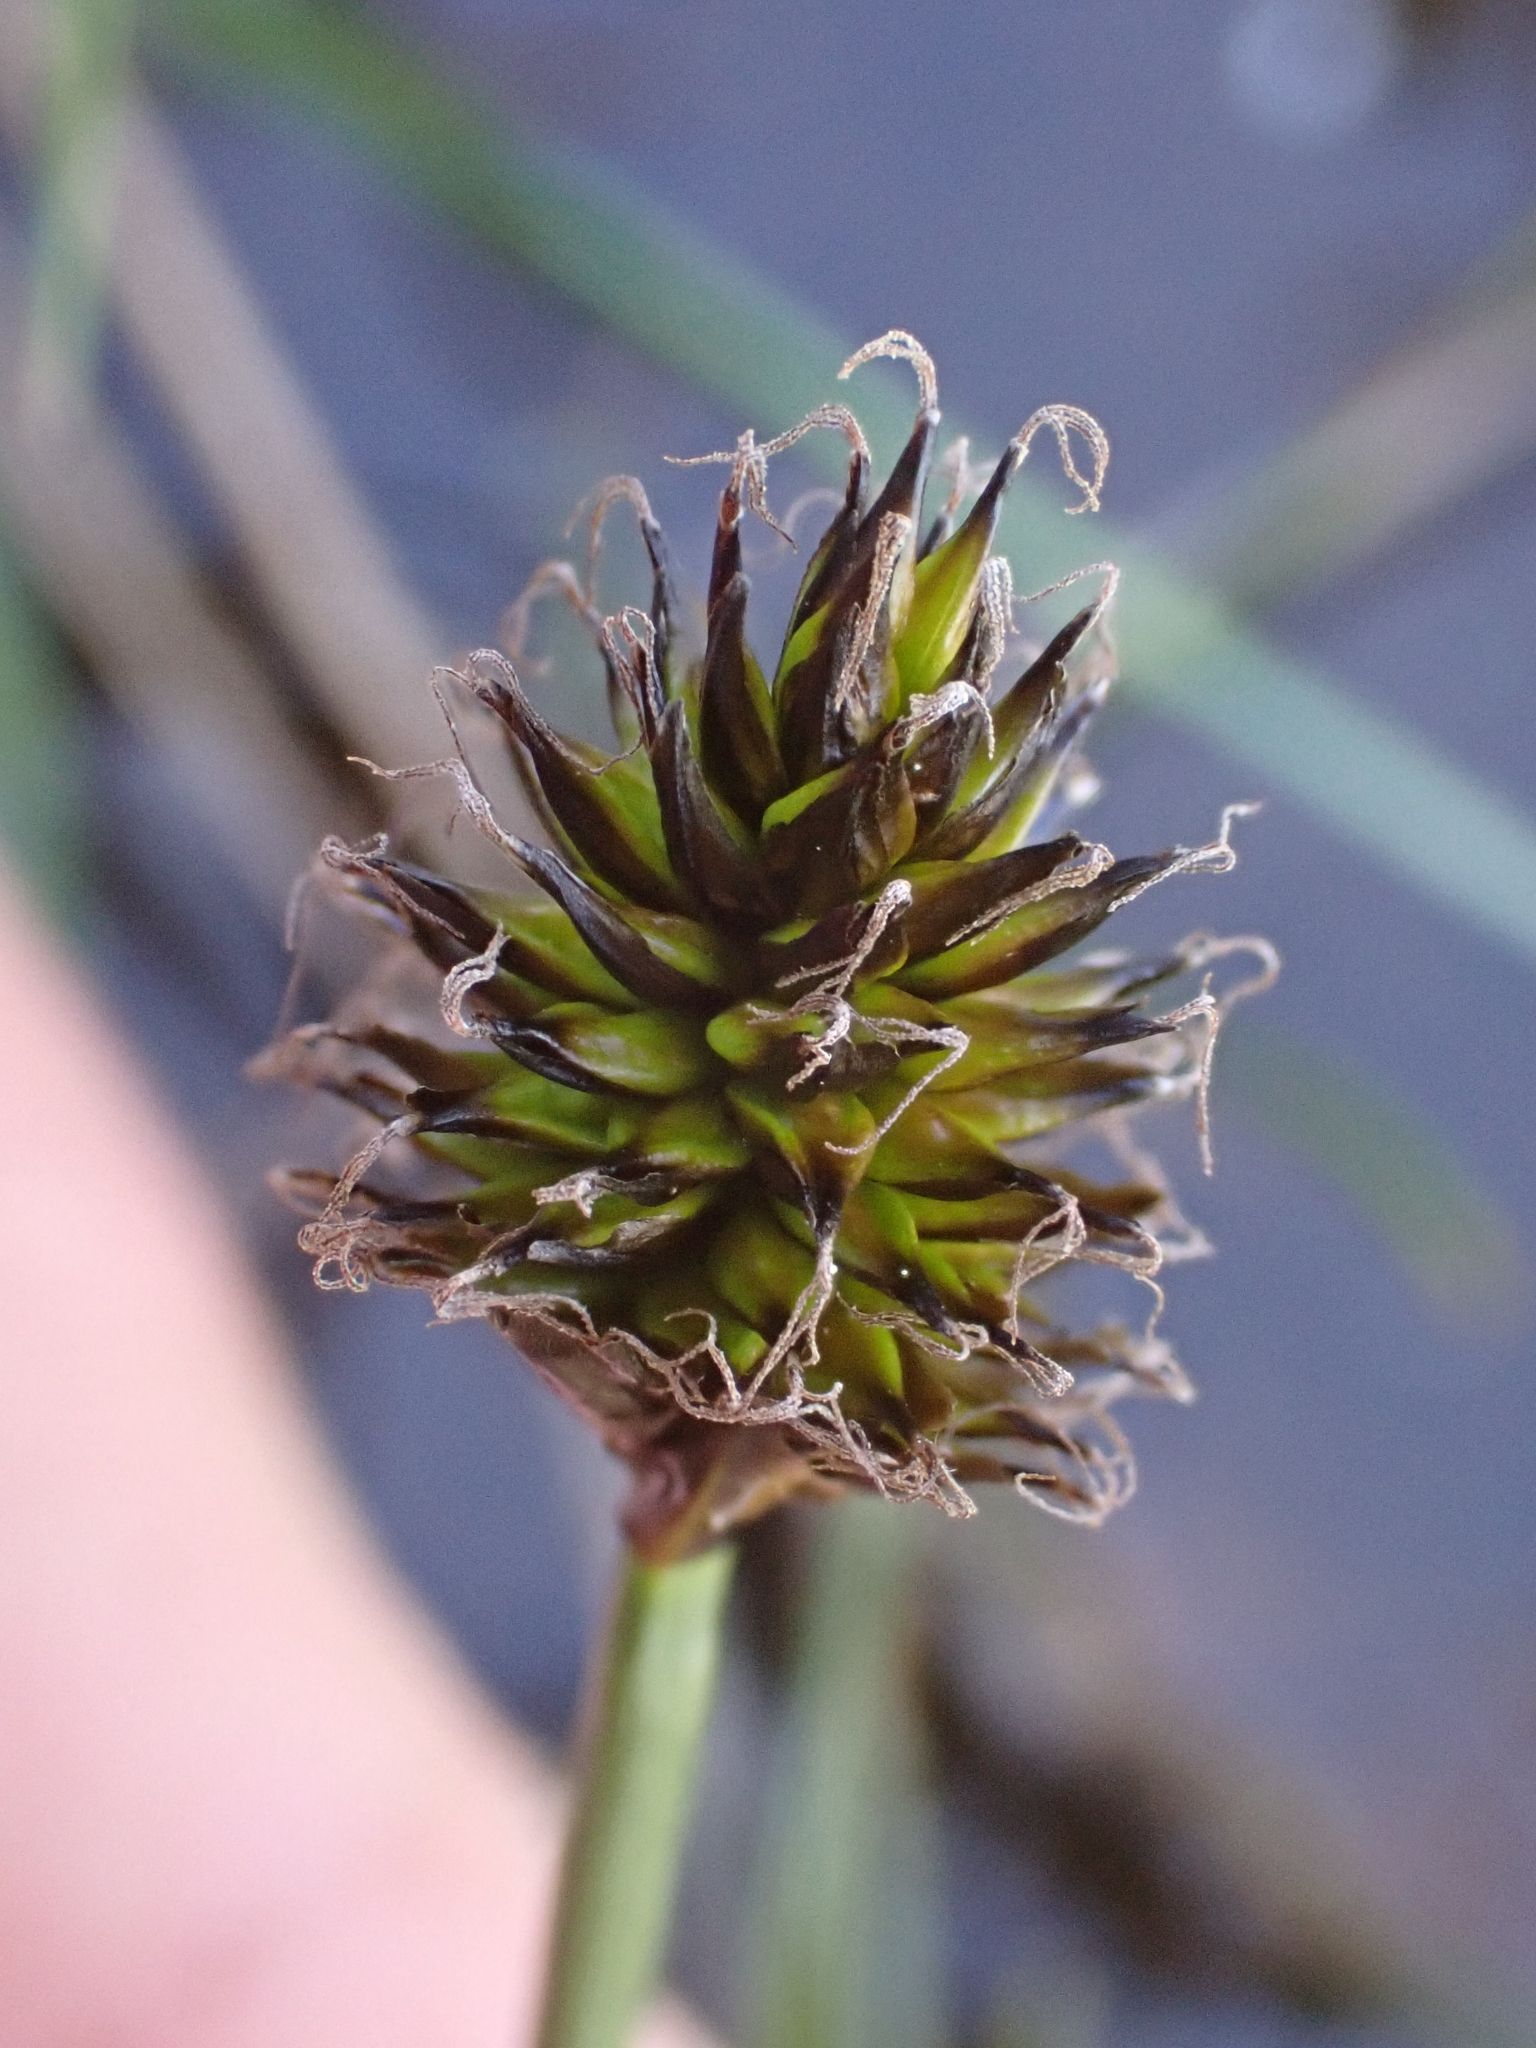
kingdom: Plantae
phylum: Tracheophyta
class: Liliopsida
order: Poales
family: Cyperaceae
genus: Carex
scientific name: Carex nigricans
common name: Black alpine sedge
